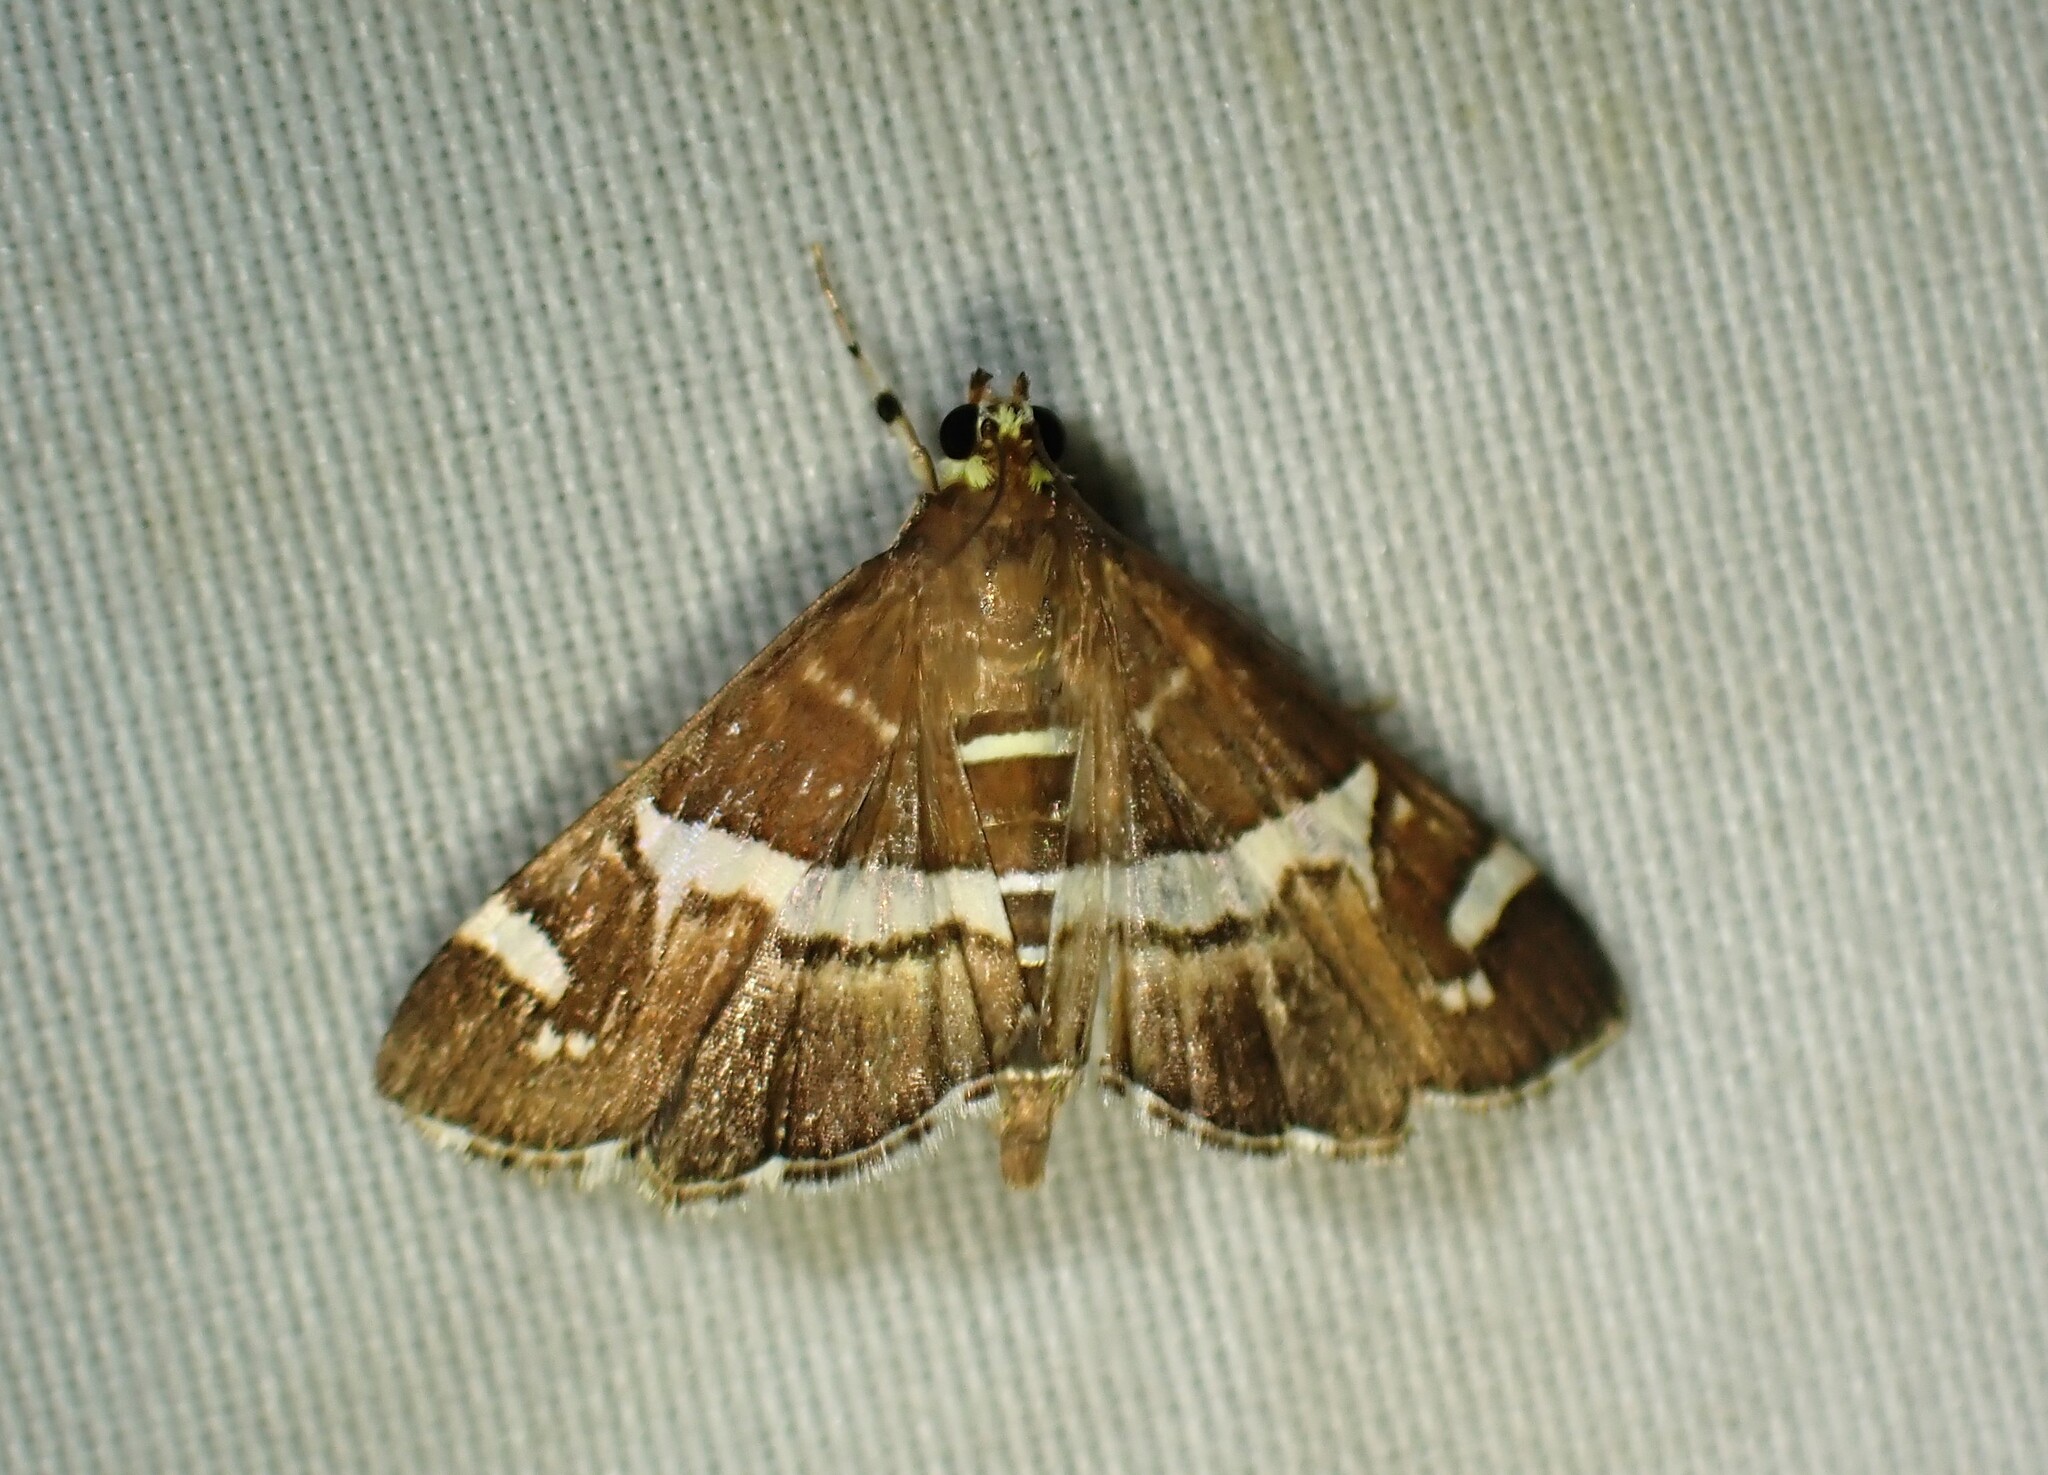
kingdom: Animalia
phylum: Arthropoda
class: Insecta
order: Lepidoptera
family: Crambidae
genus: Spoladea
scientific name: Spoladea recurvalis
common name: Beet webworm moth
